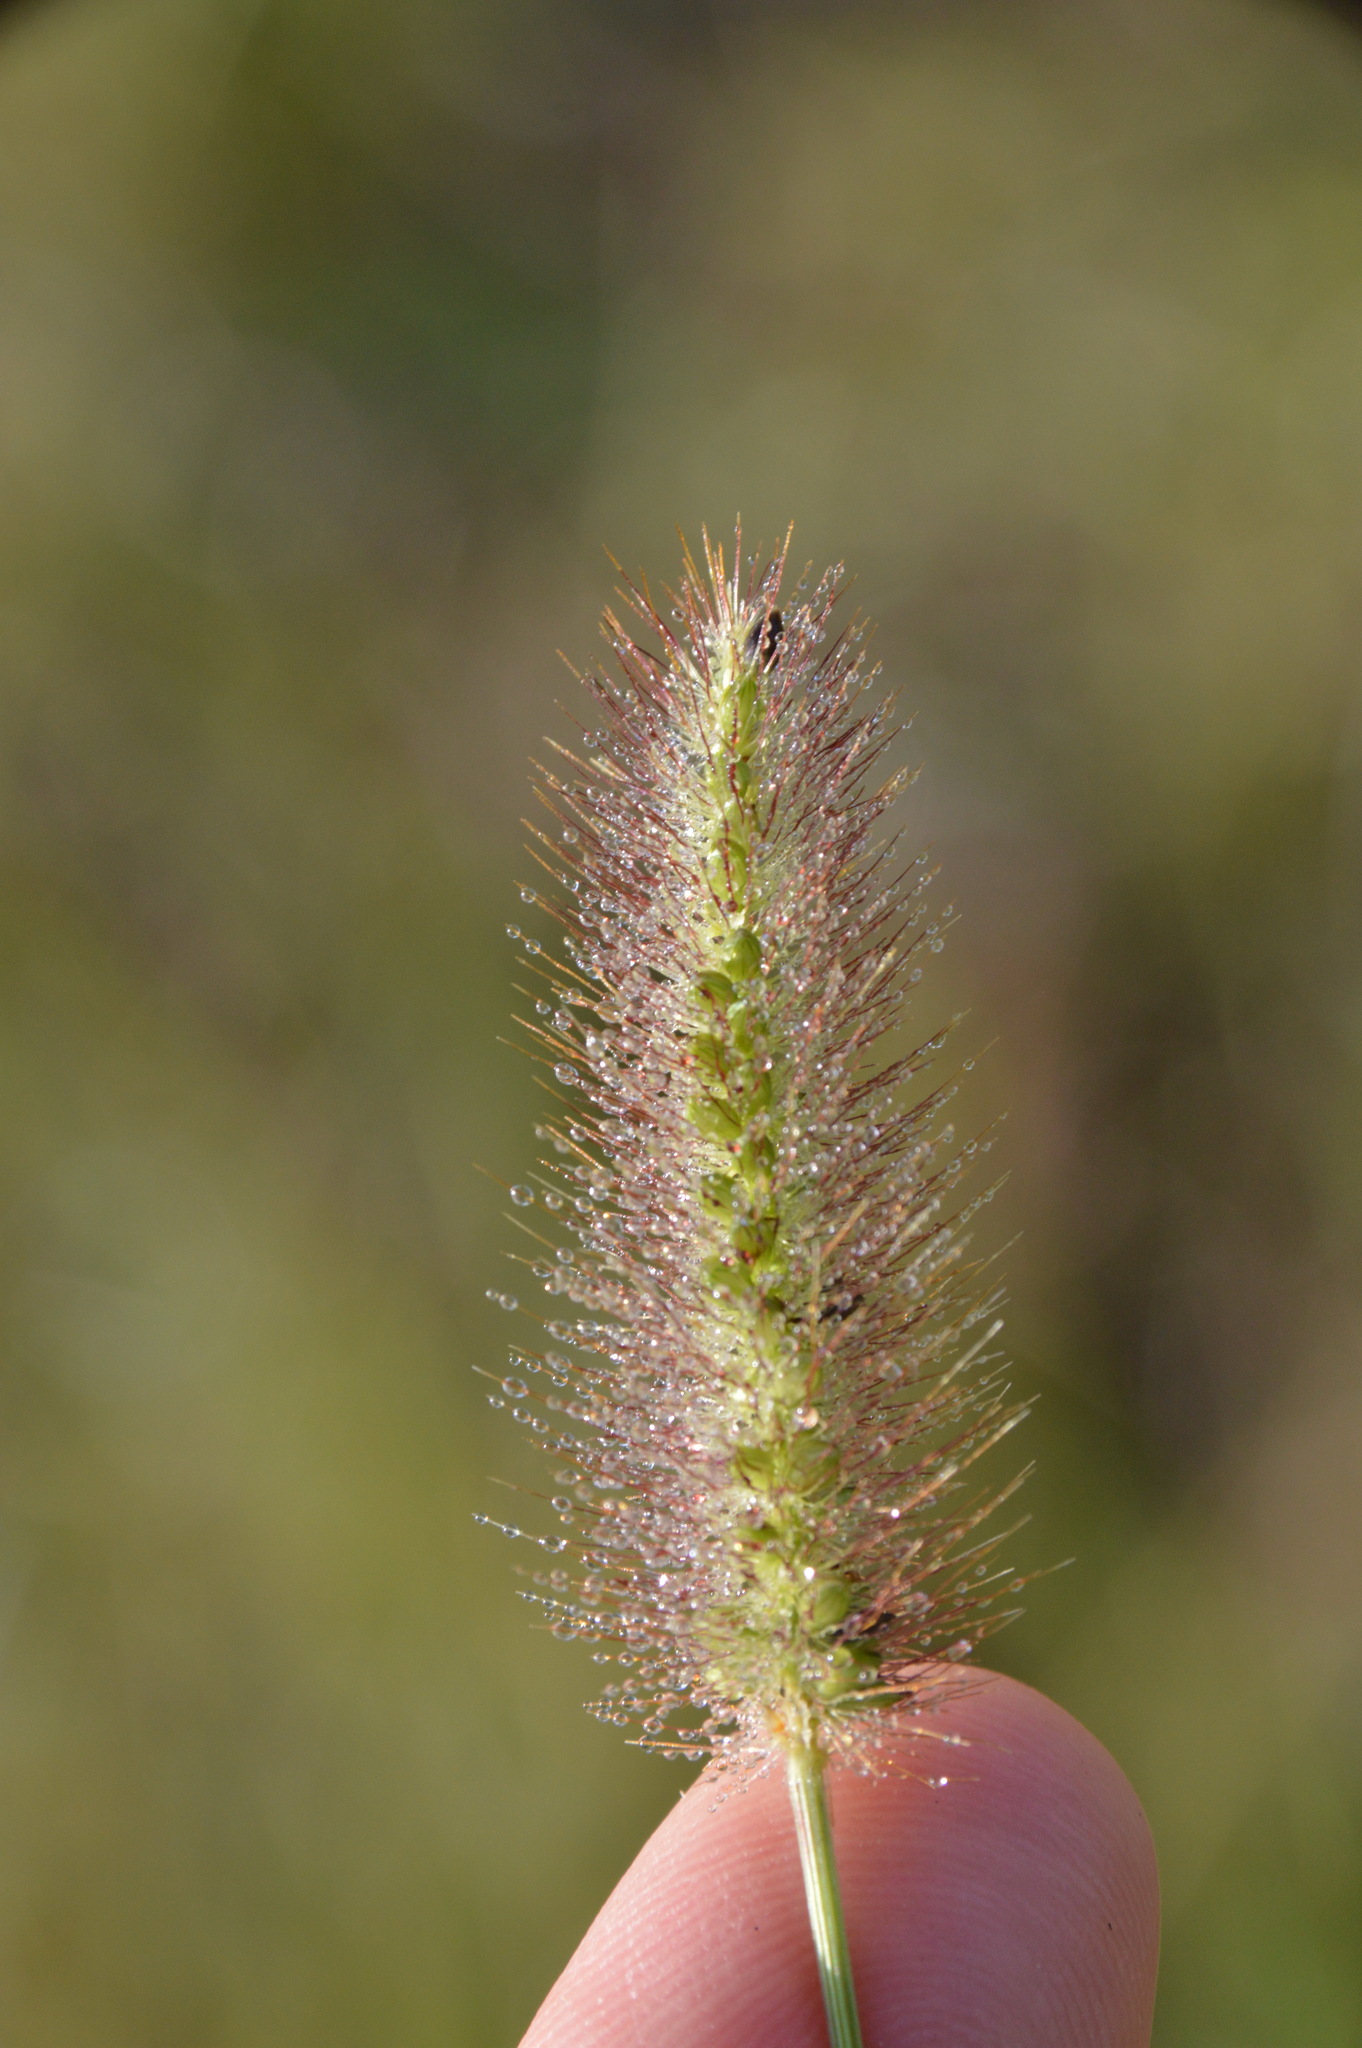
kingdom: Plantae
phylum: Tracheophyta
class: Liliopsida
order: Poales
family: Poaceae
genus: Setaria
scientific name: Setaria parviflora
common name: Knotroot bristle-grass
